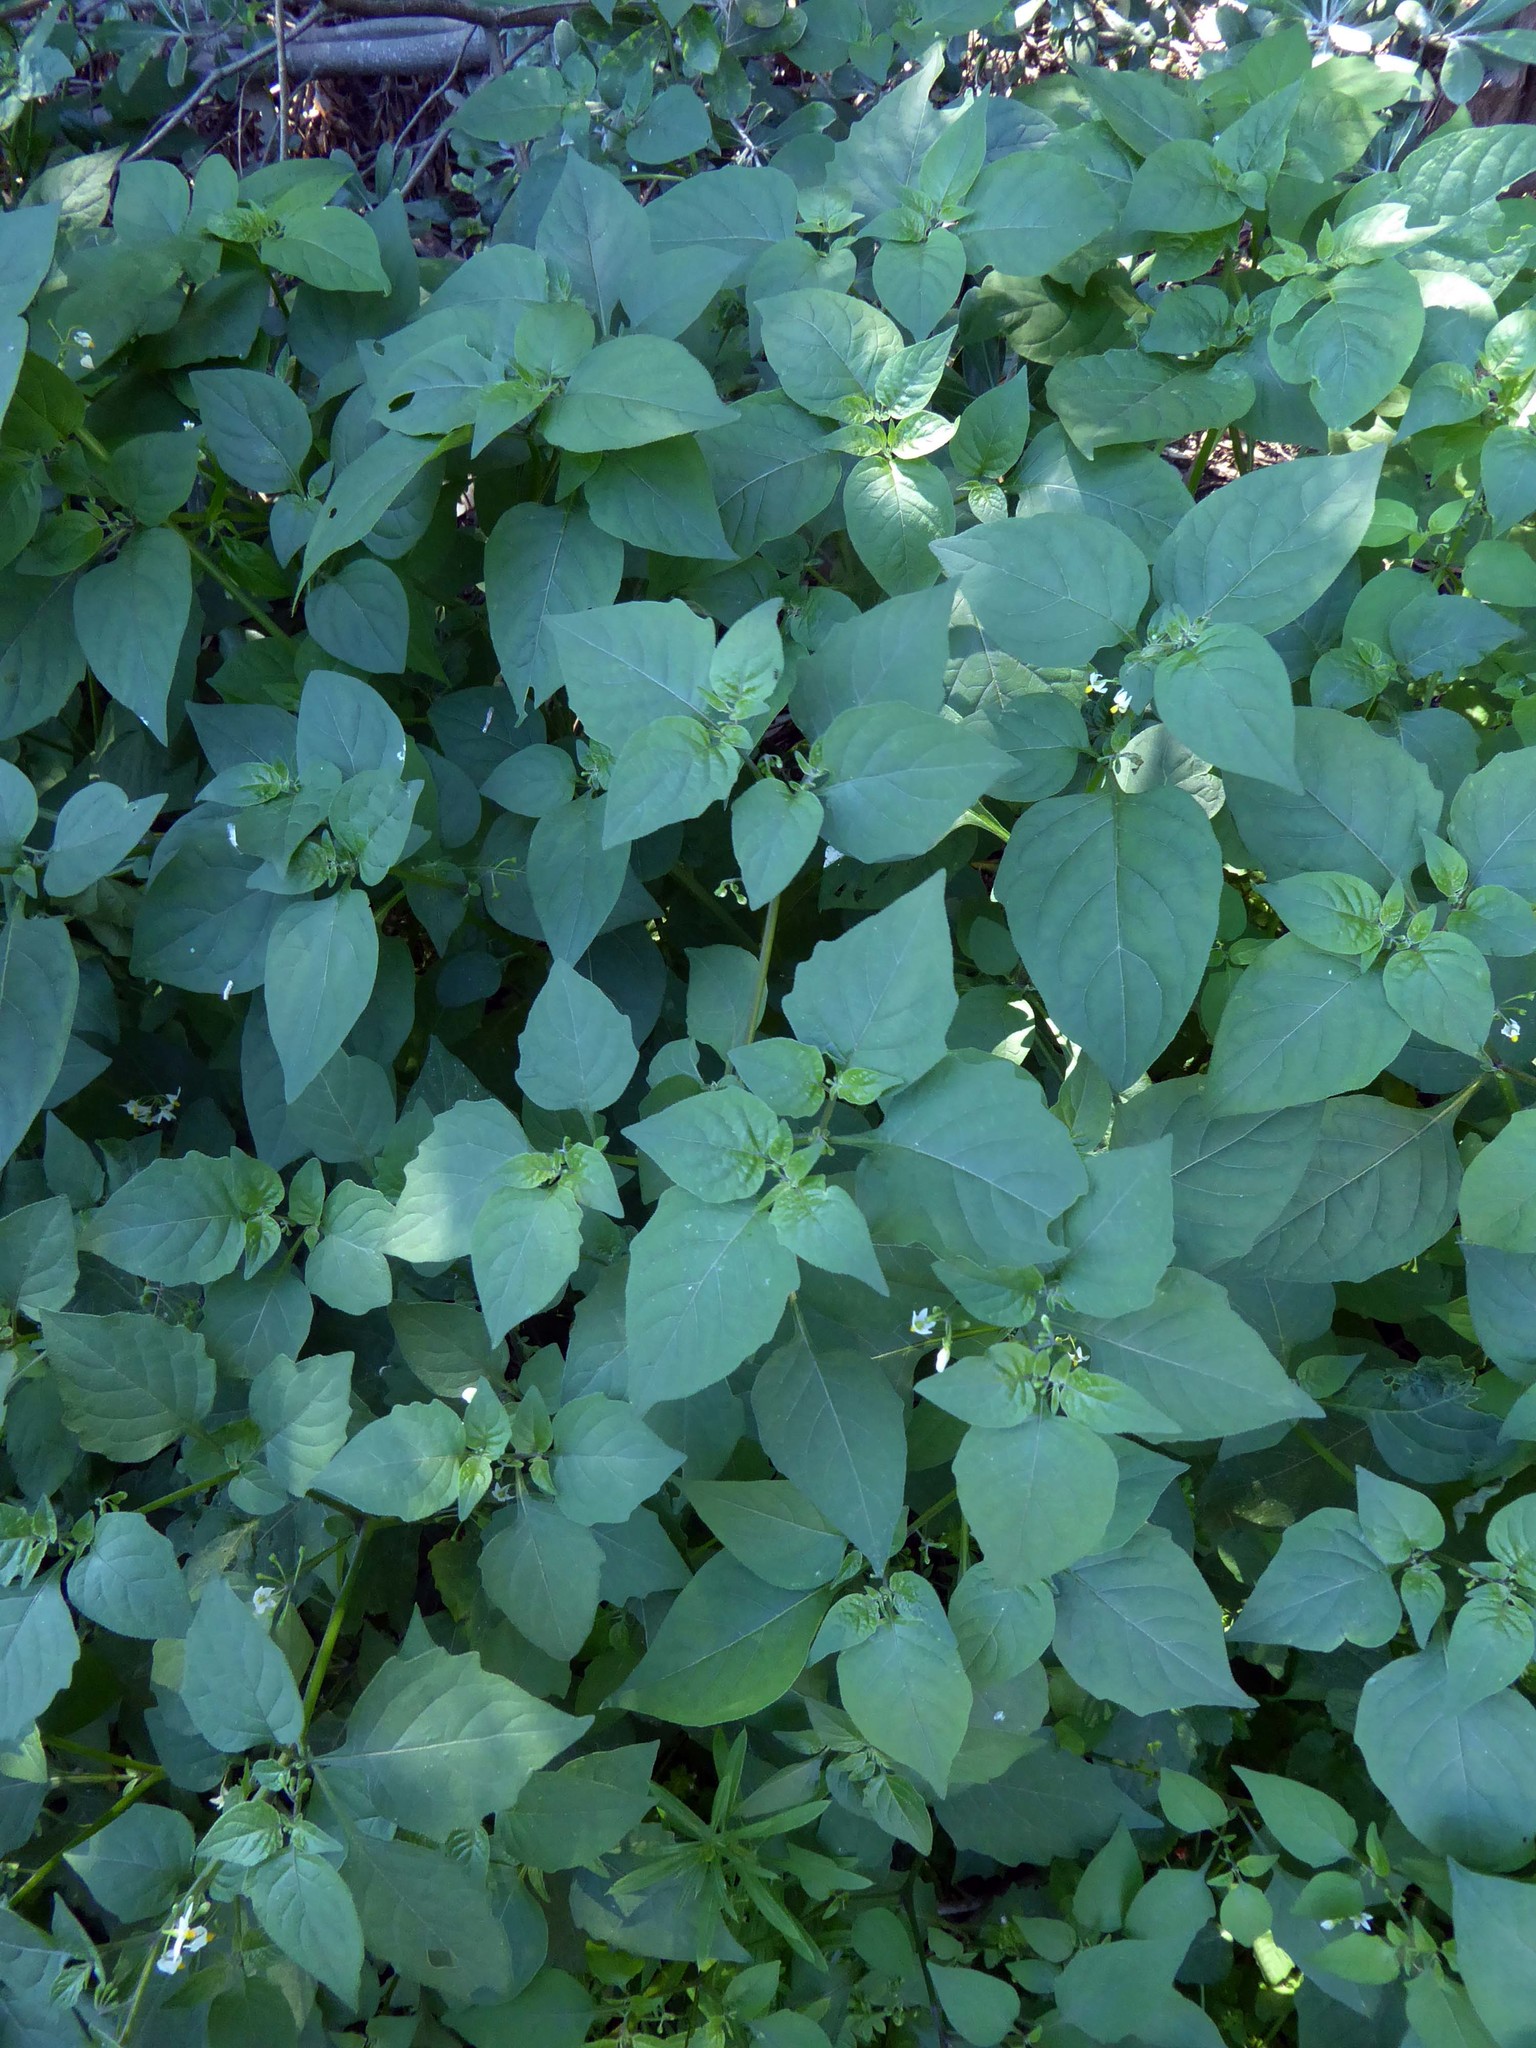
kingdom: Plantae
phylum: Tracheophyta
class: Magnoliopsida
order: Solanales
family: Solanaceae
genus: Solanum
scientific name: Solanum nigrum
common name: Black nightshade
